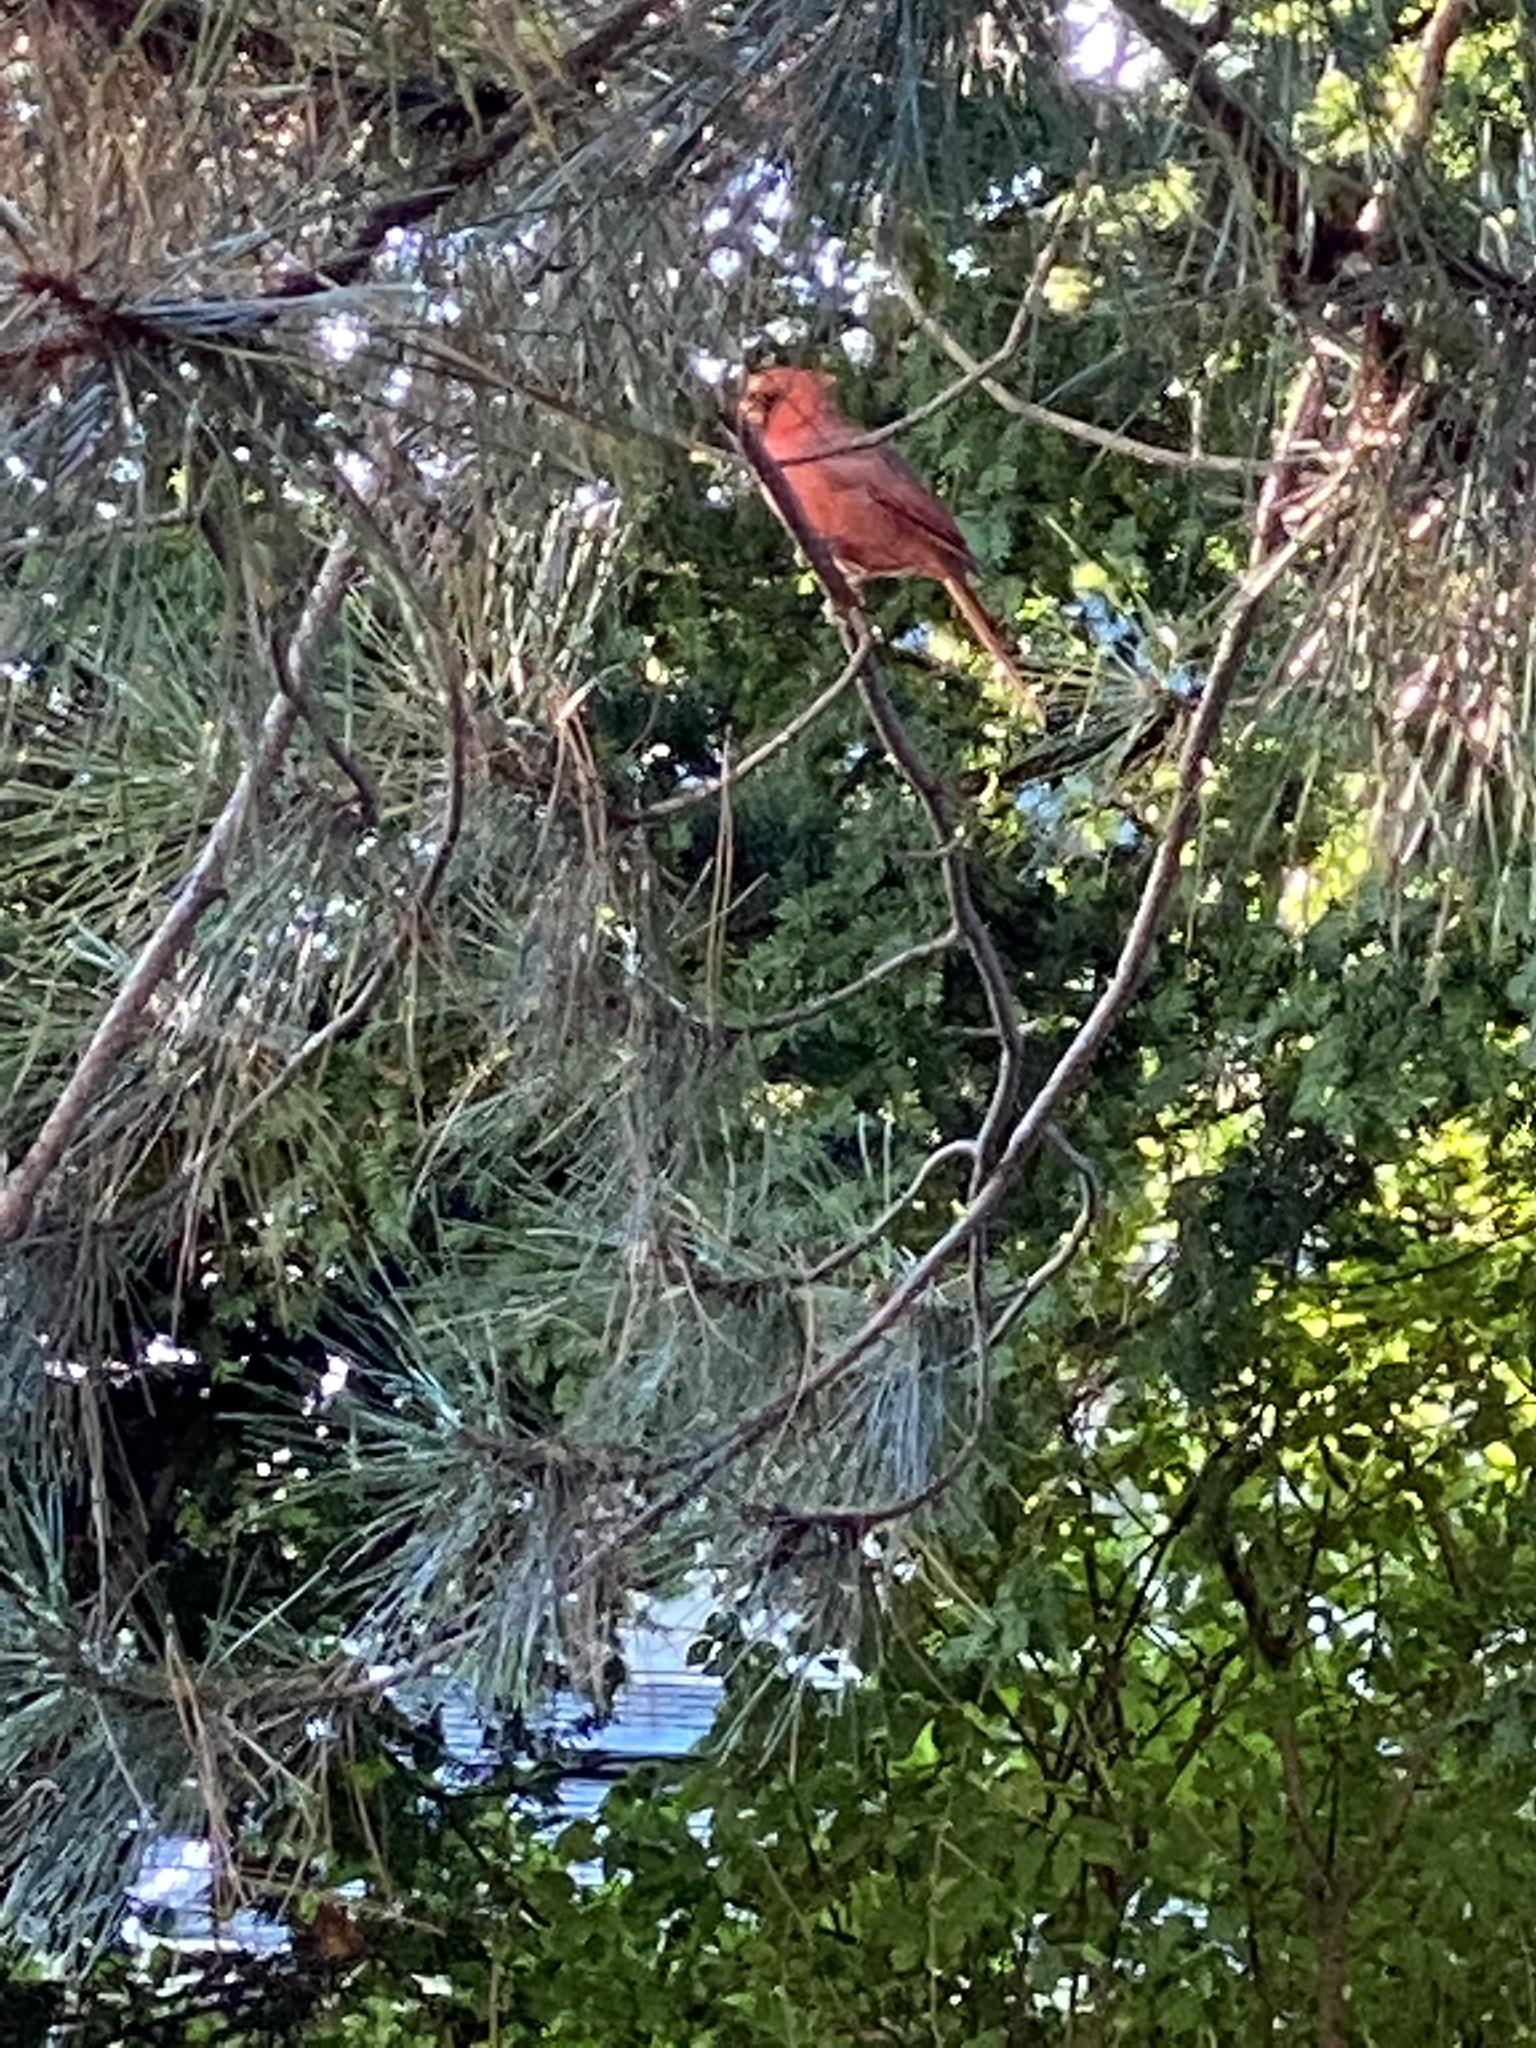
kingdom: Animalia
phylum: Chordata
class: Aves
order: Passeriformes
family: Cardinalidae
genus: Cardinalis
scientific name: Cardinalis cardinalis
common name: Northern cardinal
